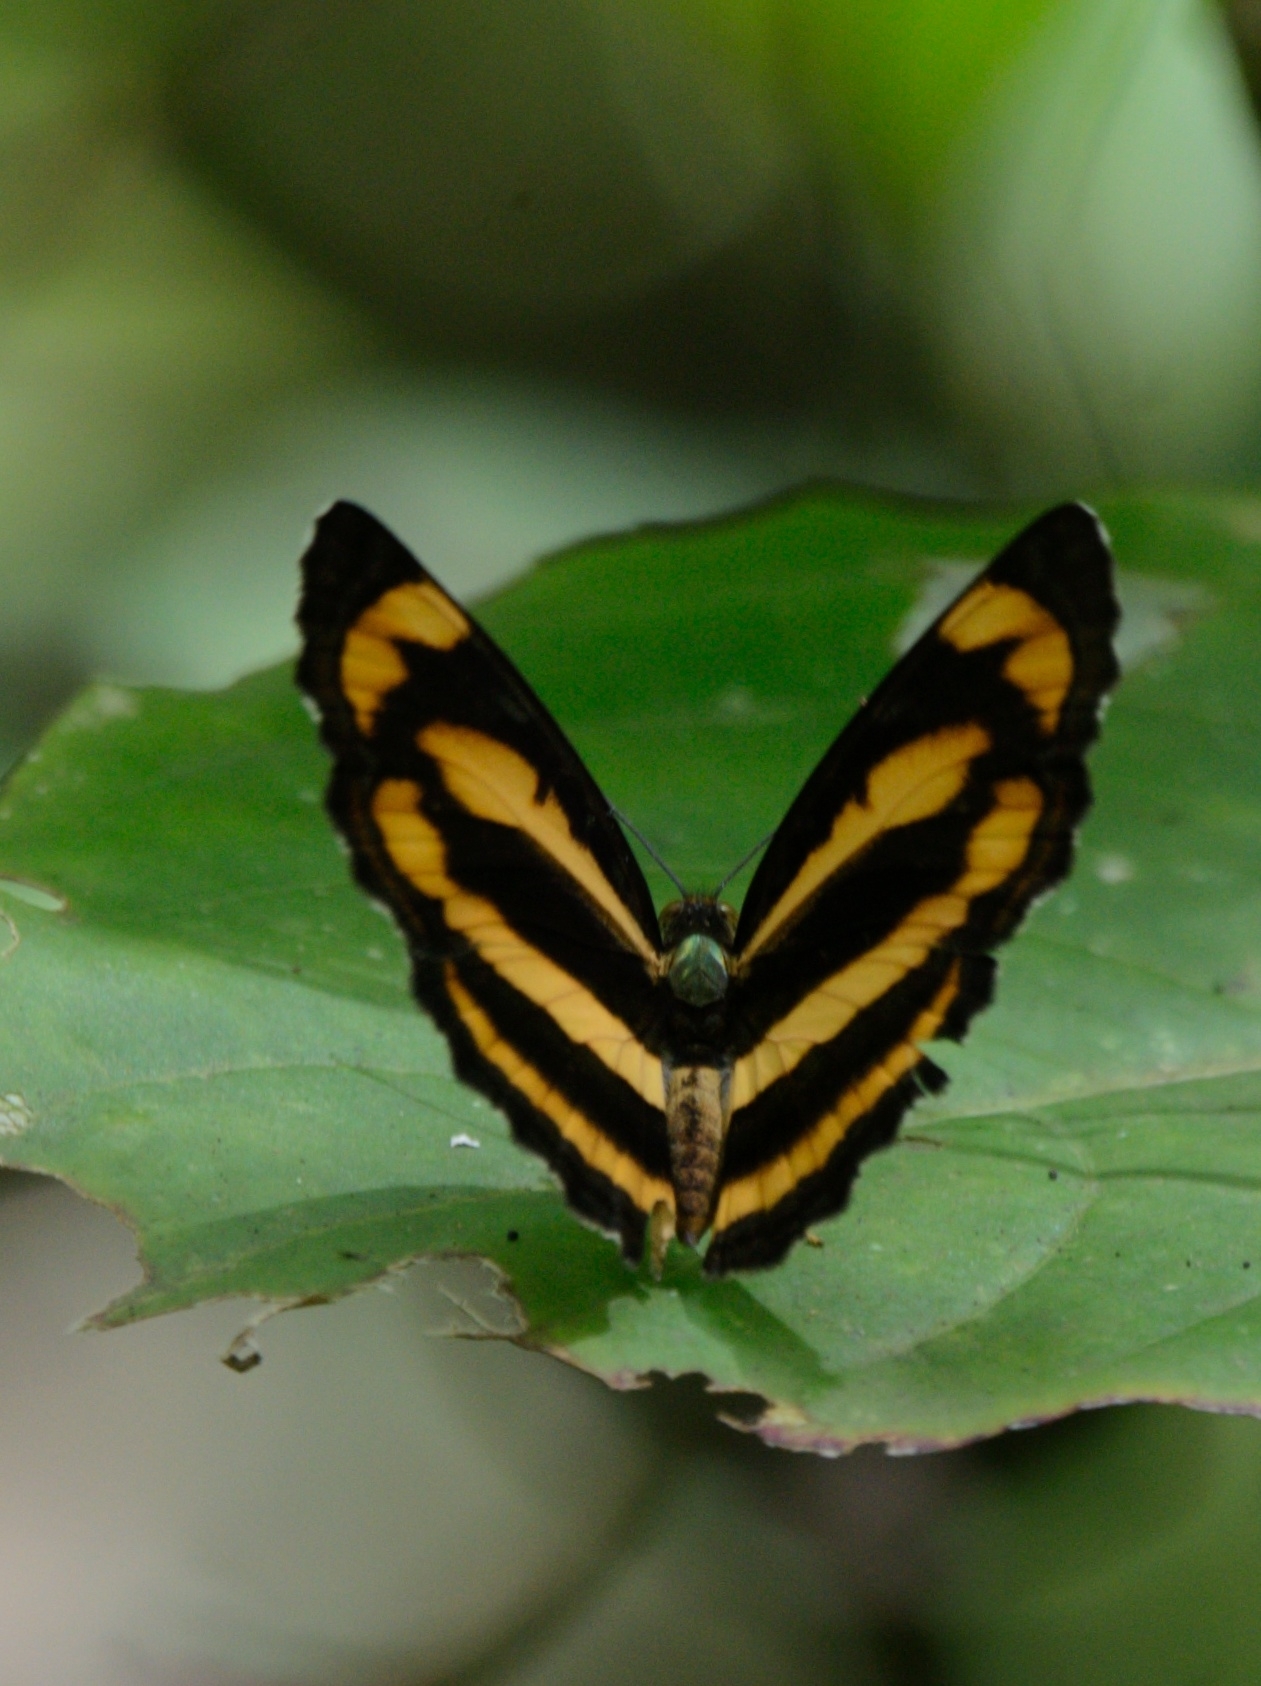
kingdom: Animalia
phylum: Arthropoda
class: Insecta
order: Lepidoptera
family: Nymphalidae
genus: Pantoporia
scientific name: Pantoporia hordonia
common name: Common lascar
